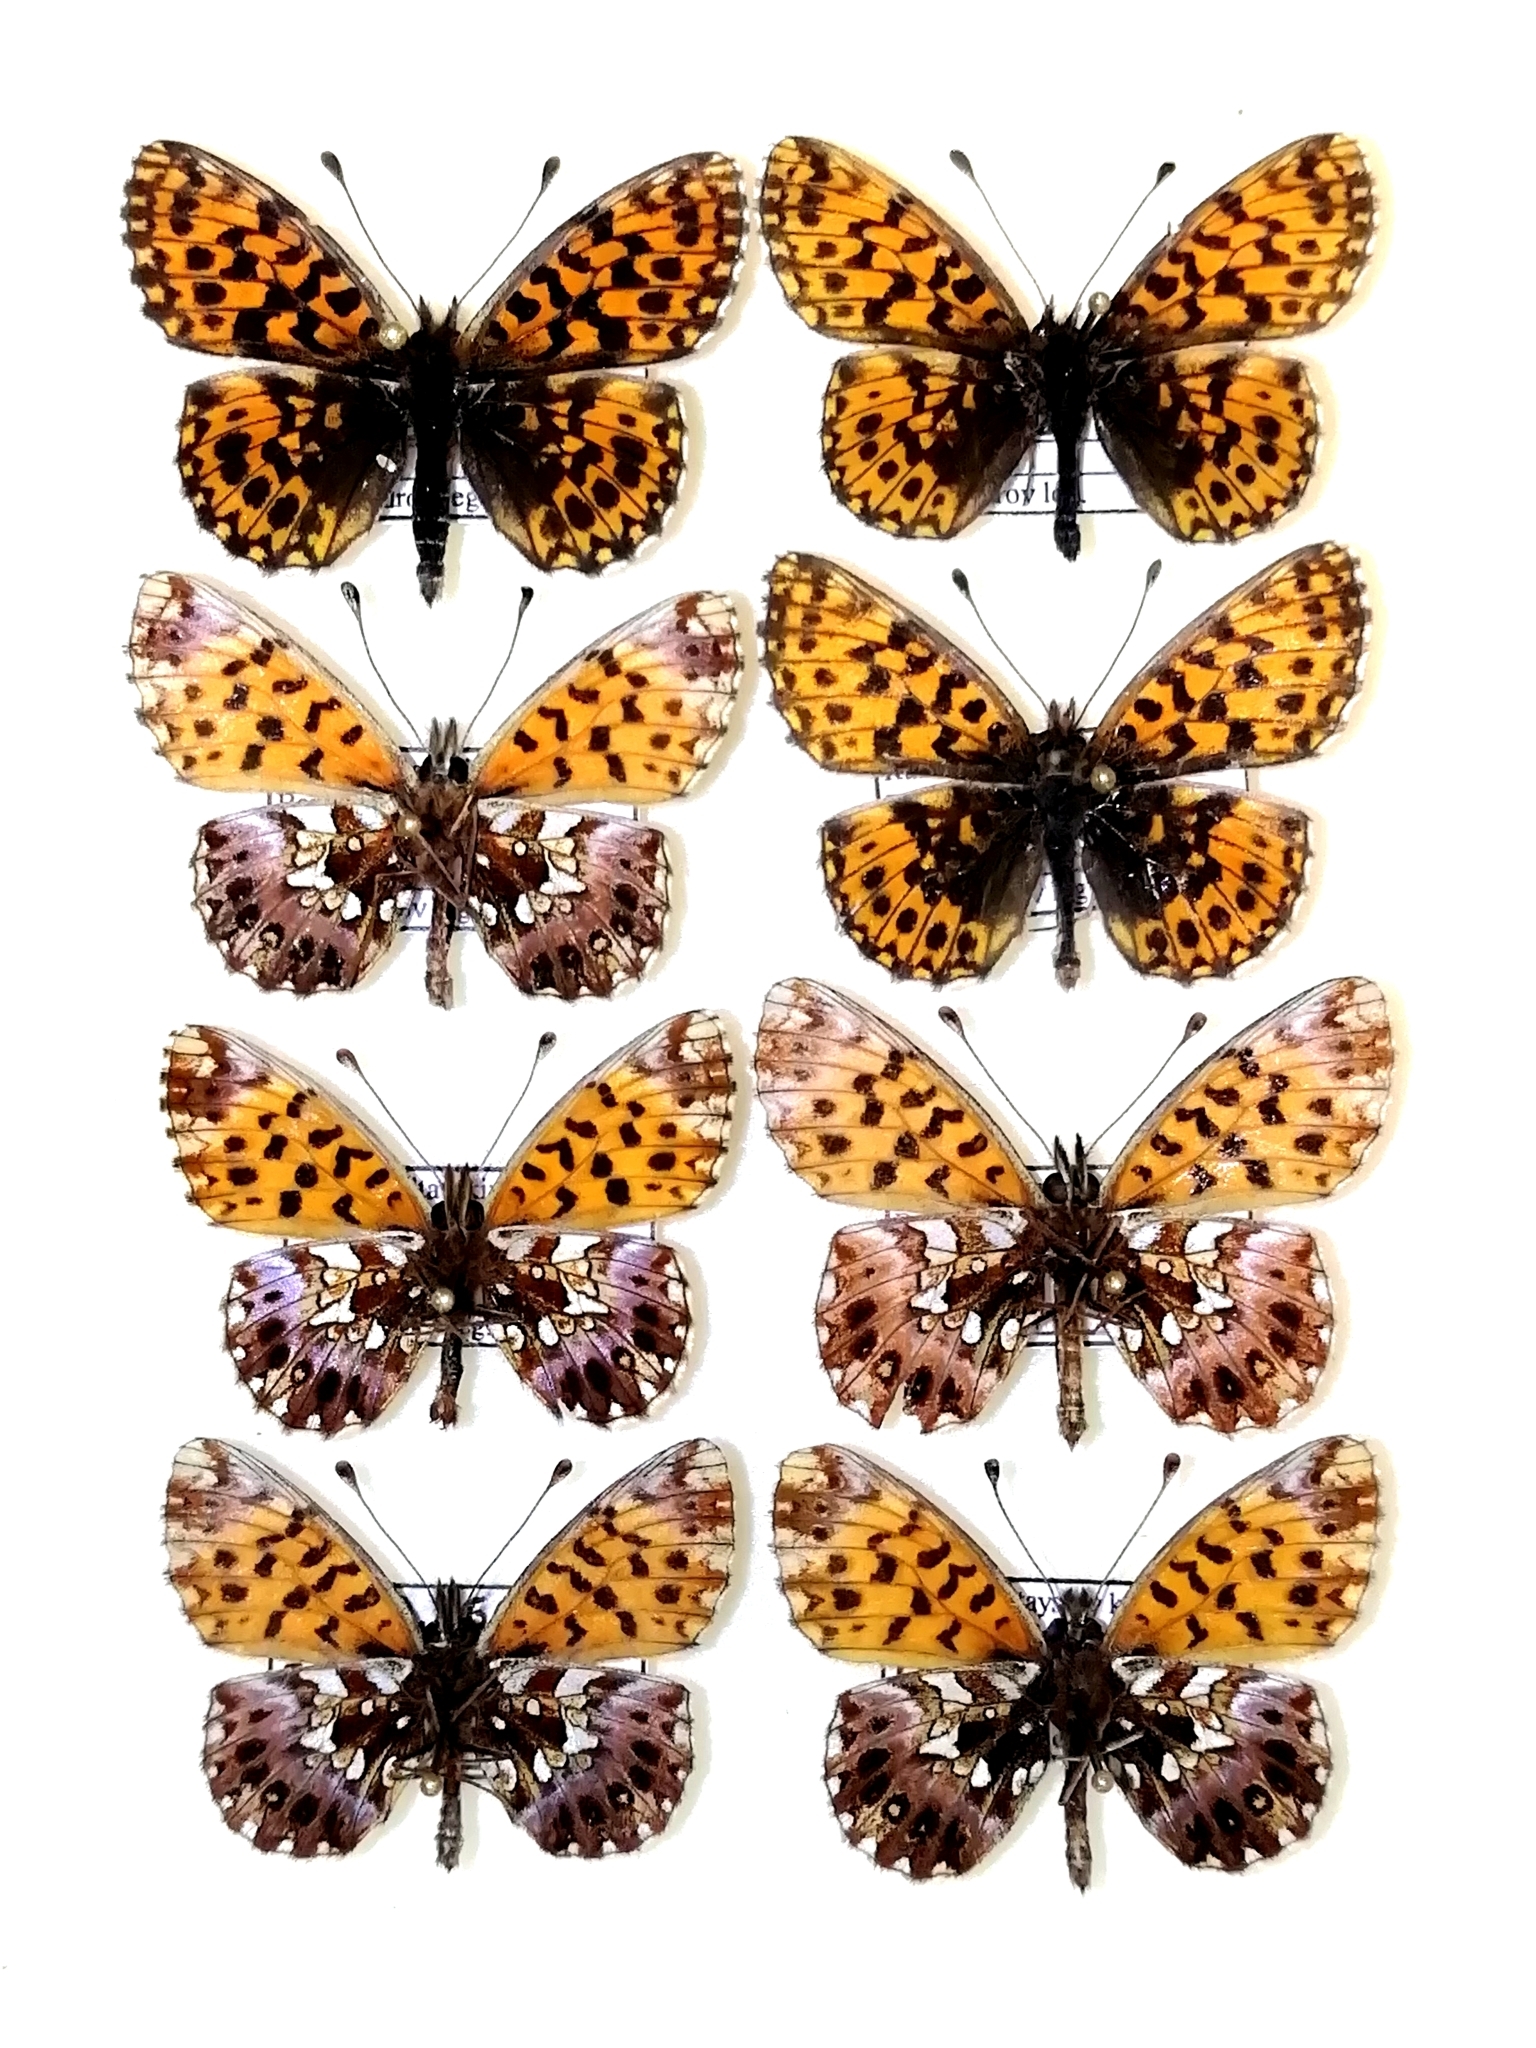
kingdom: Animalia
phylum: Arthropoda
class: Insecta
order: Lepidoptera
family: Nymphalidae
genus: Boloria
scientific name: Boloria dia
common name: Weaver's fritillary
